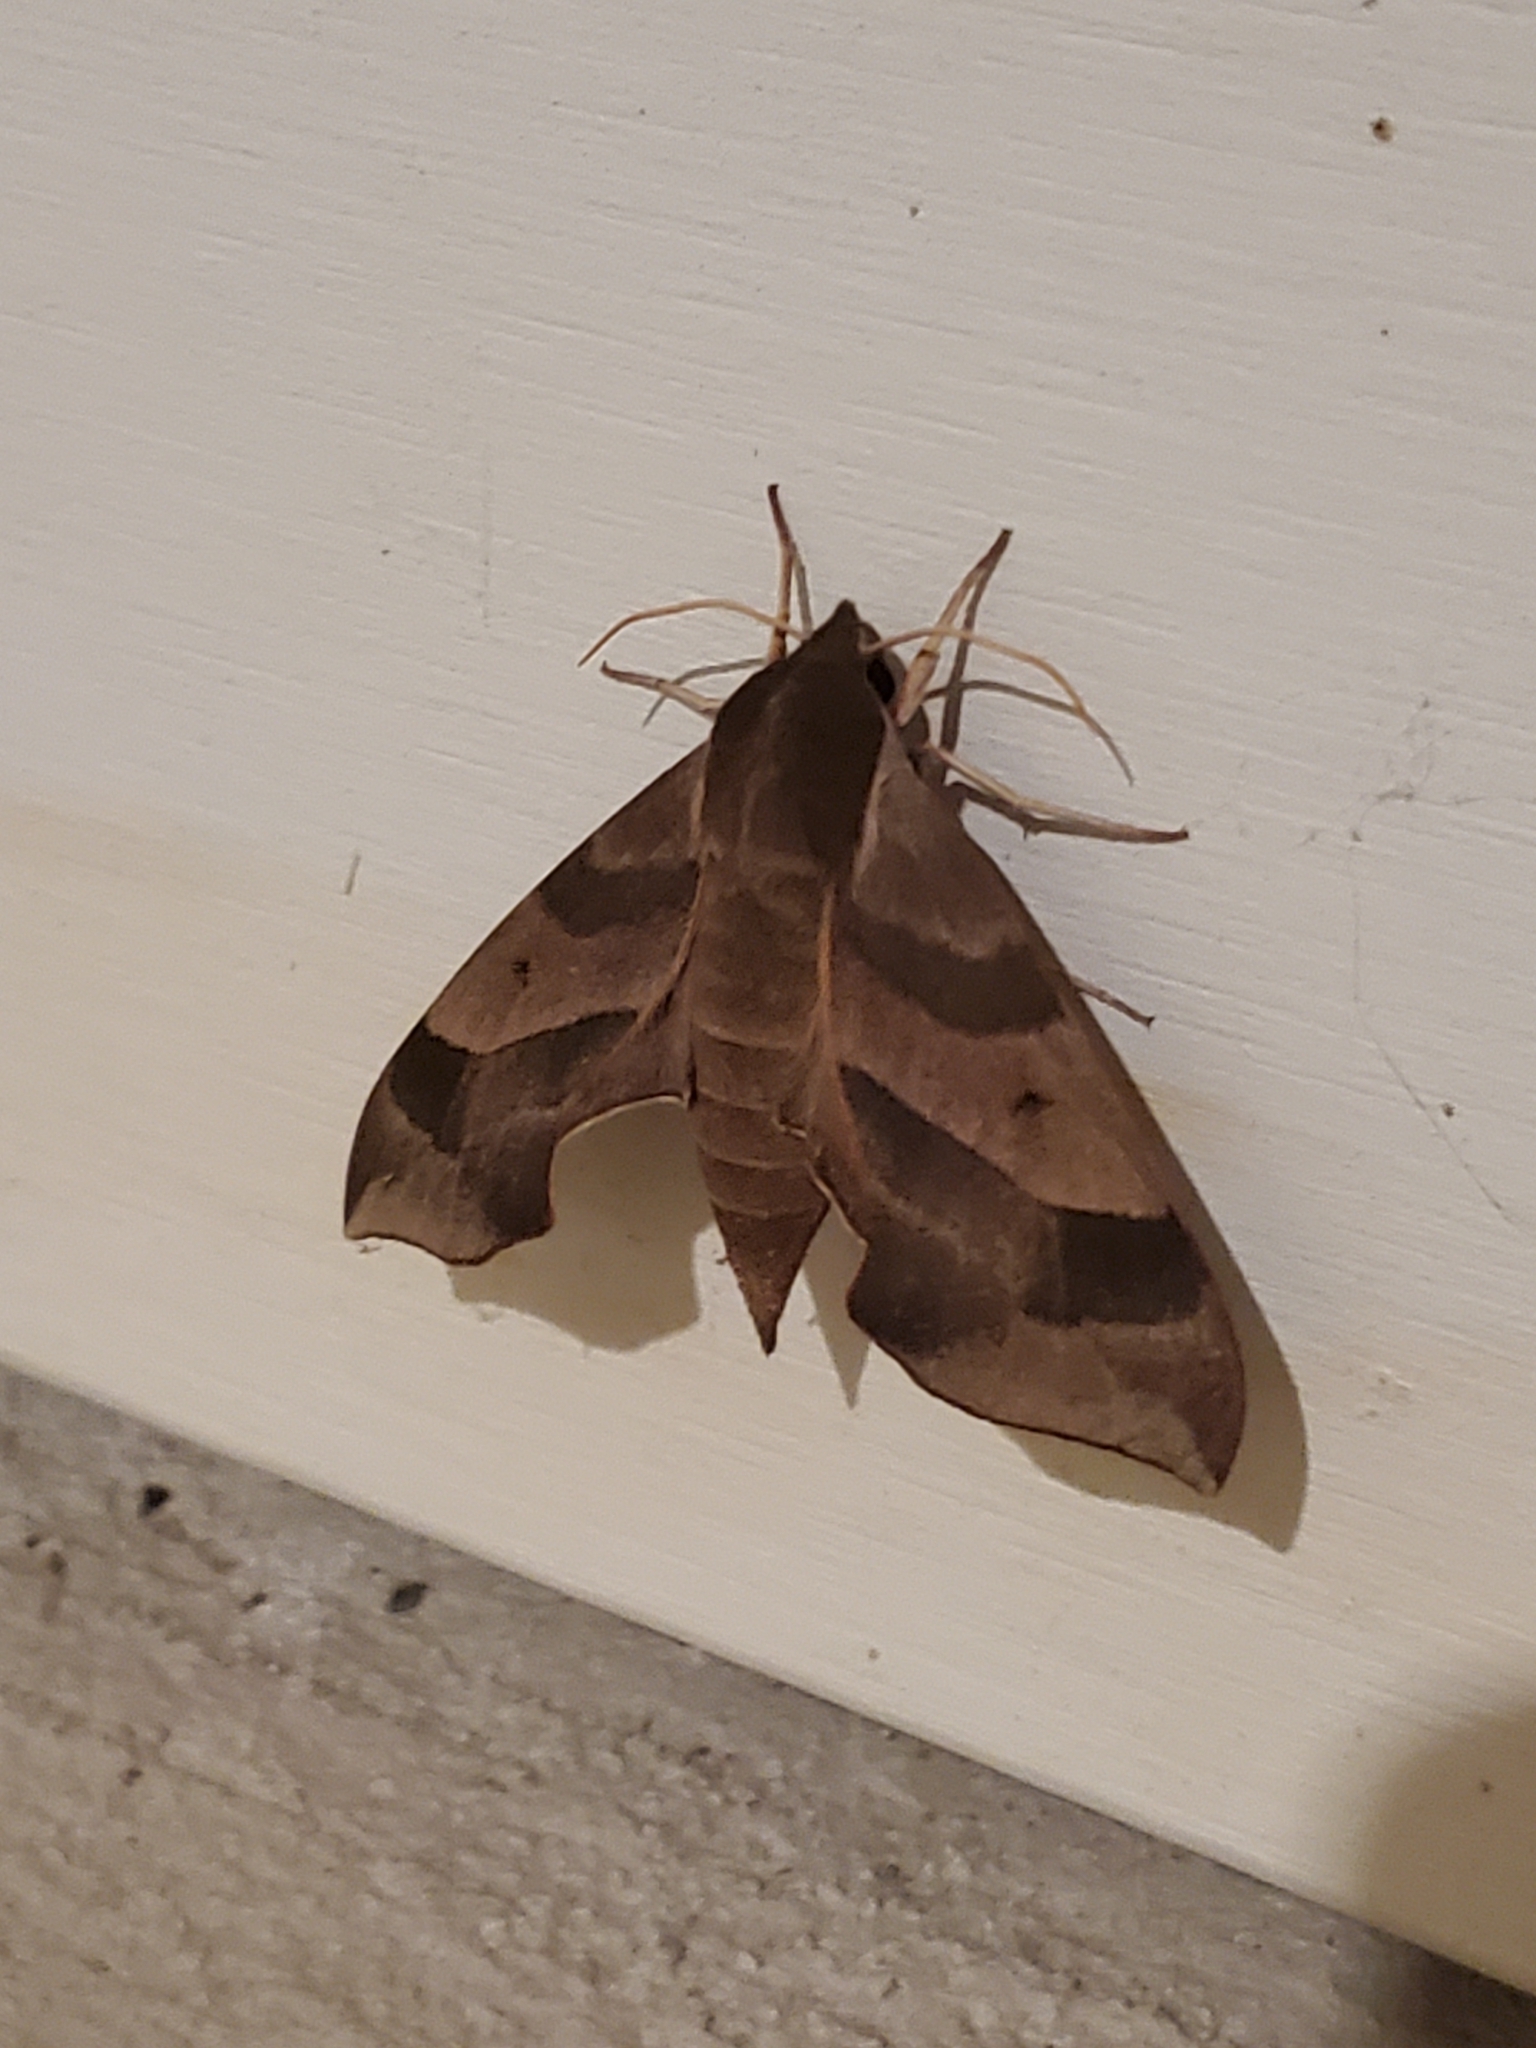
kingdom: Animalia
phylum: Arthropoda
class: Insecta
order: Lepidoptera
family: Sphingidae
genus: Darapsa
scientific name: Darapsa myron
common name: Hog sphinx
